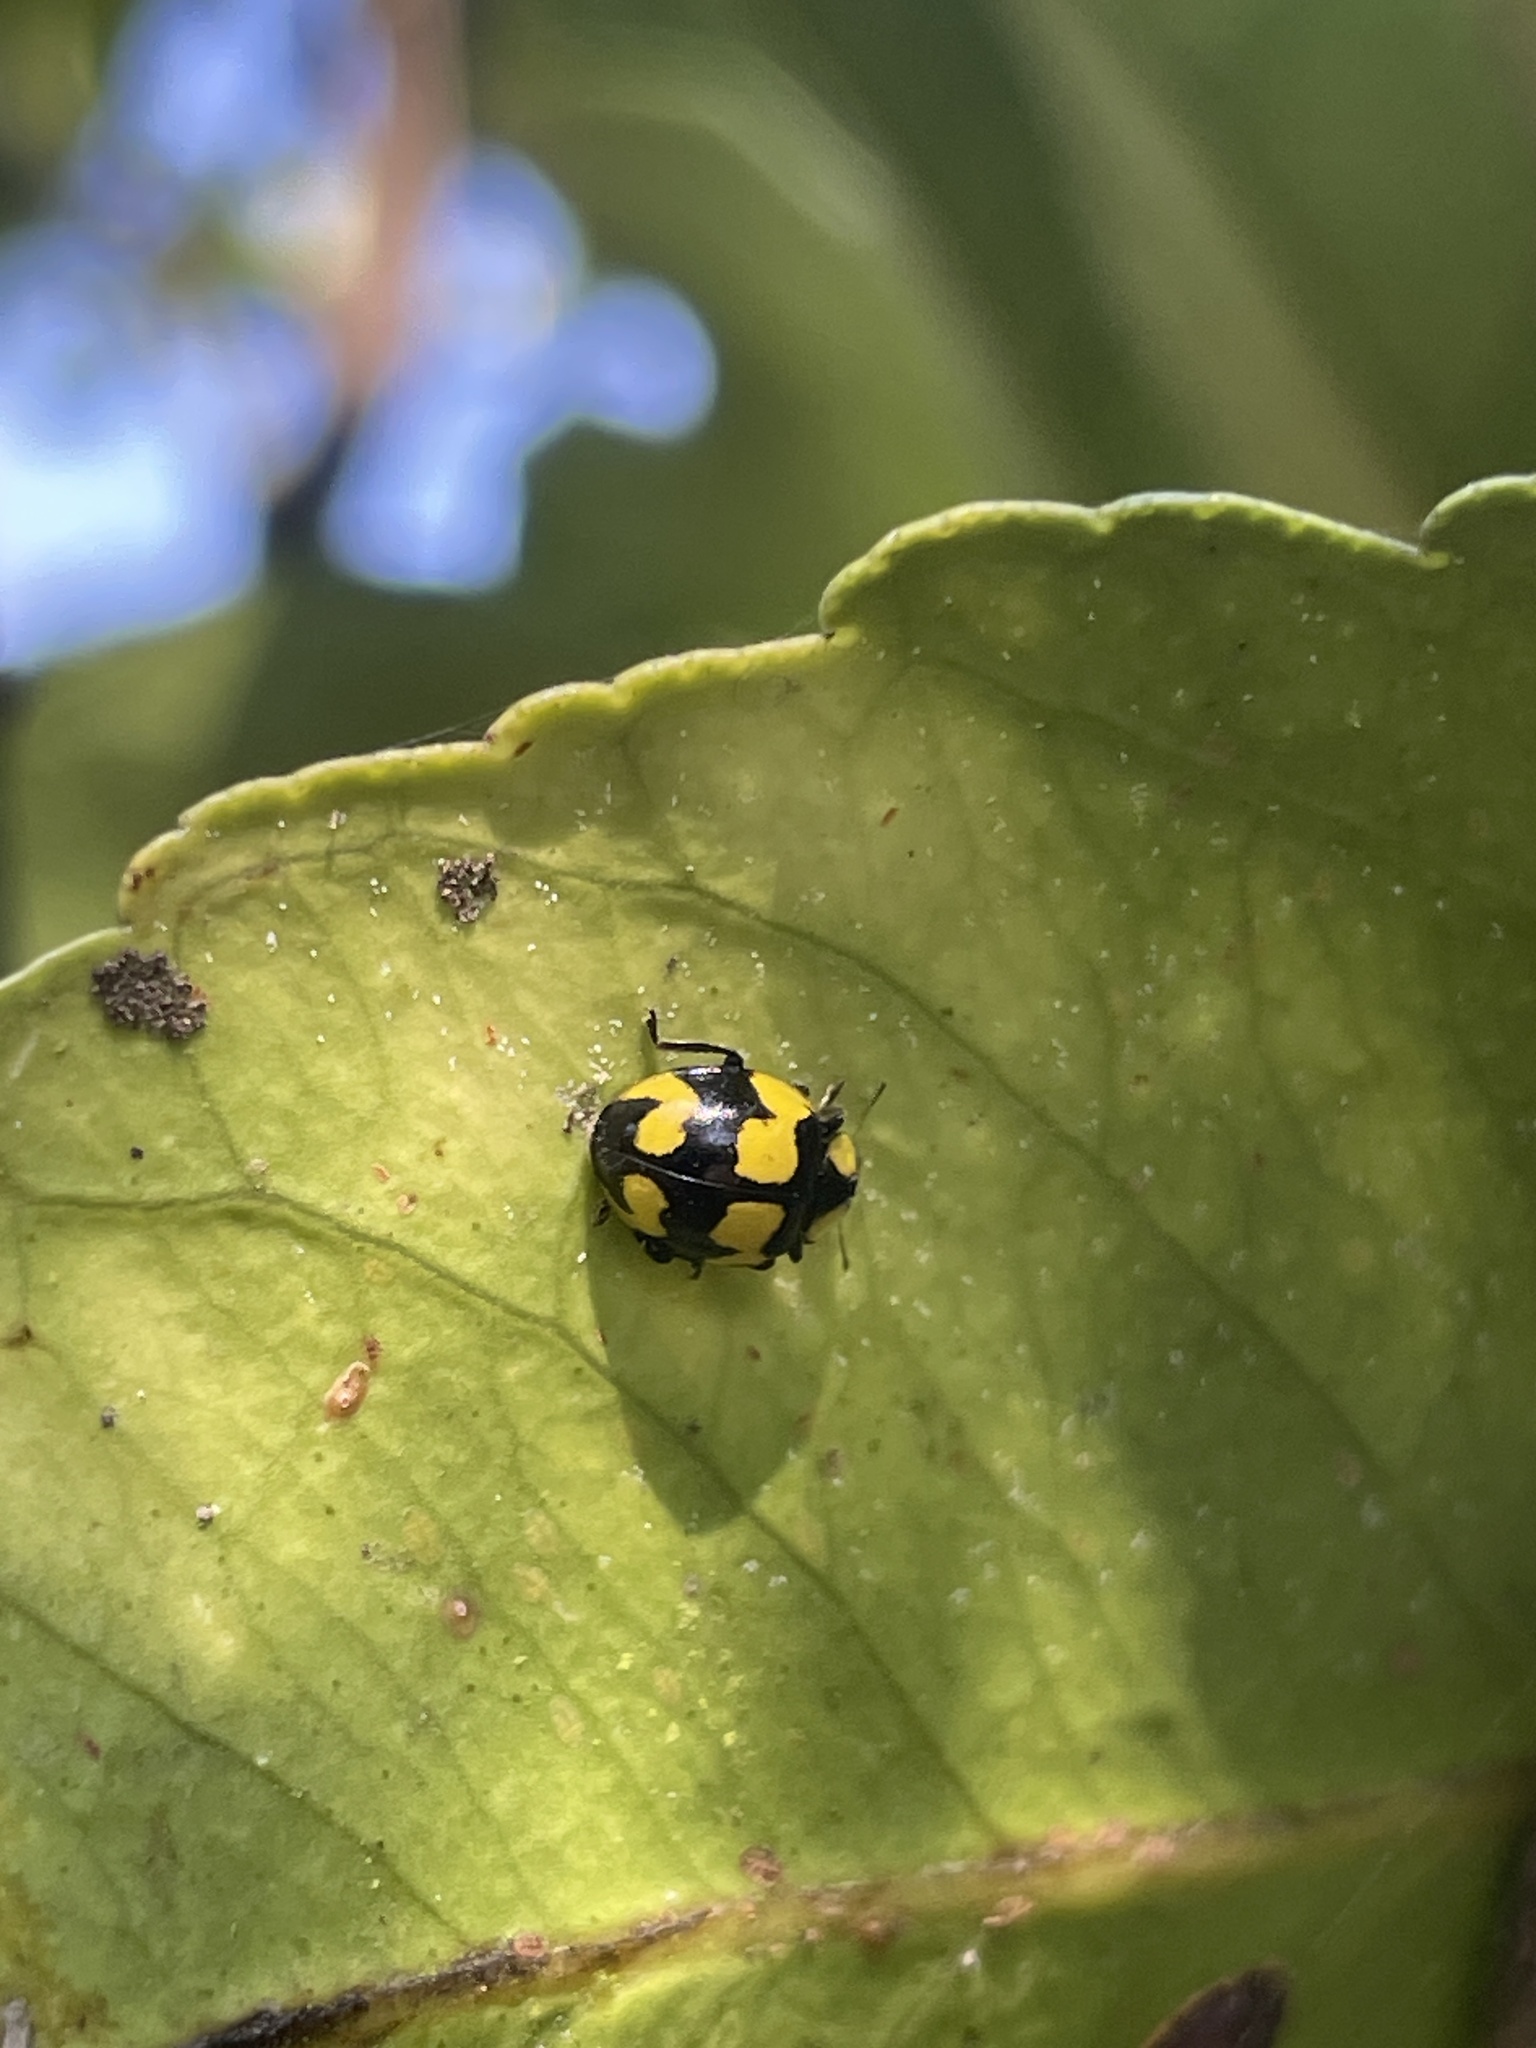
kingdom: Animalia
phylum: Arthropoda
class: Insecta
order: Coleoptera
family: Coccinellidae
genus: Illeis
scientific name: Illeis galbula
